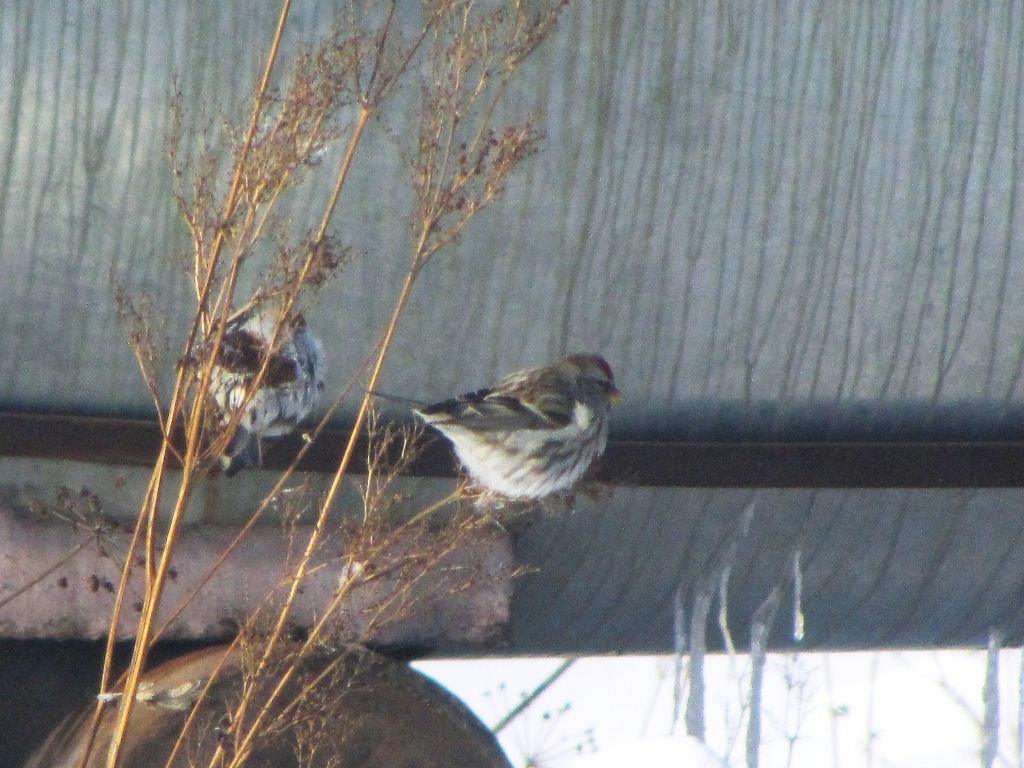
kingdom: Animalia
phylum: Chordata
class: Aves
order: Passeriformes
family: Fringillidae
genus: Acanthis
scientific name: Acanthis flammea
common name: Common redpoll
